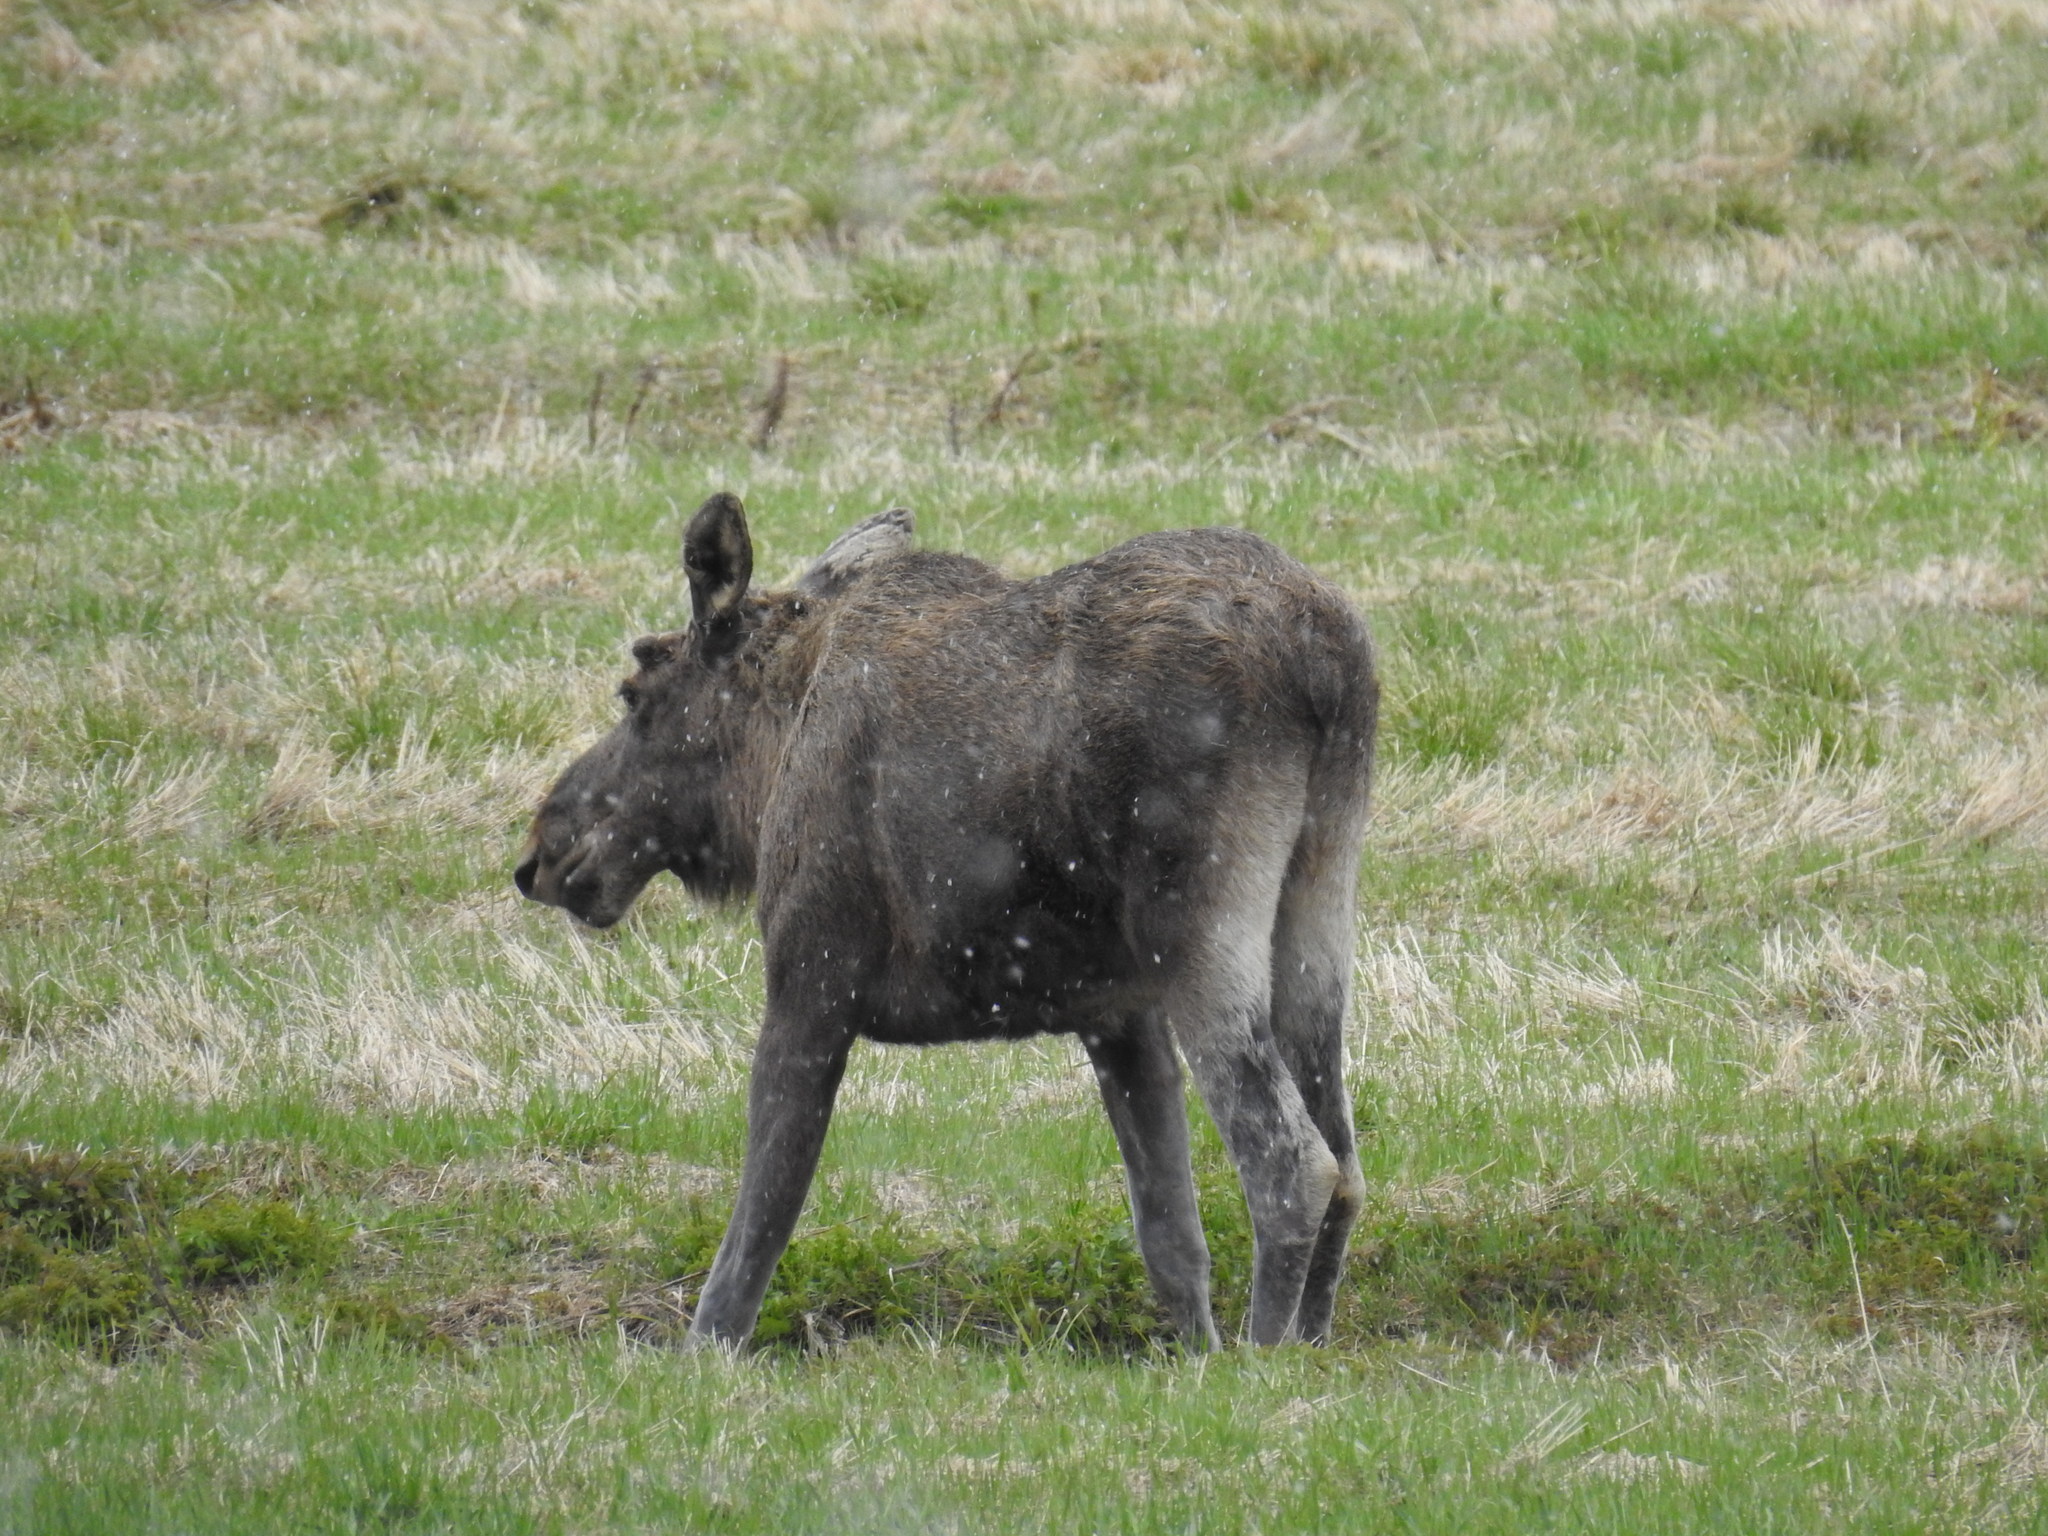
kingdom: Animalia
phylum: Chordata
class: Mammalia
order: Artiodactyla
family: Cervidae
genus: Alces
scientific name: Alces alces
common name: Moose
